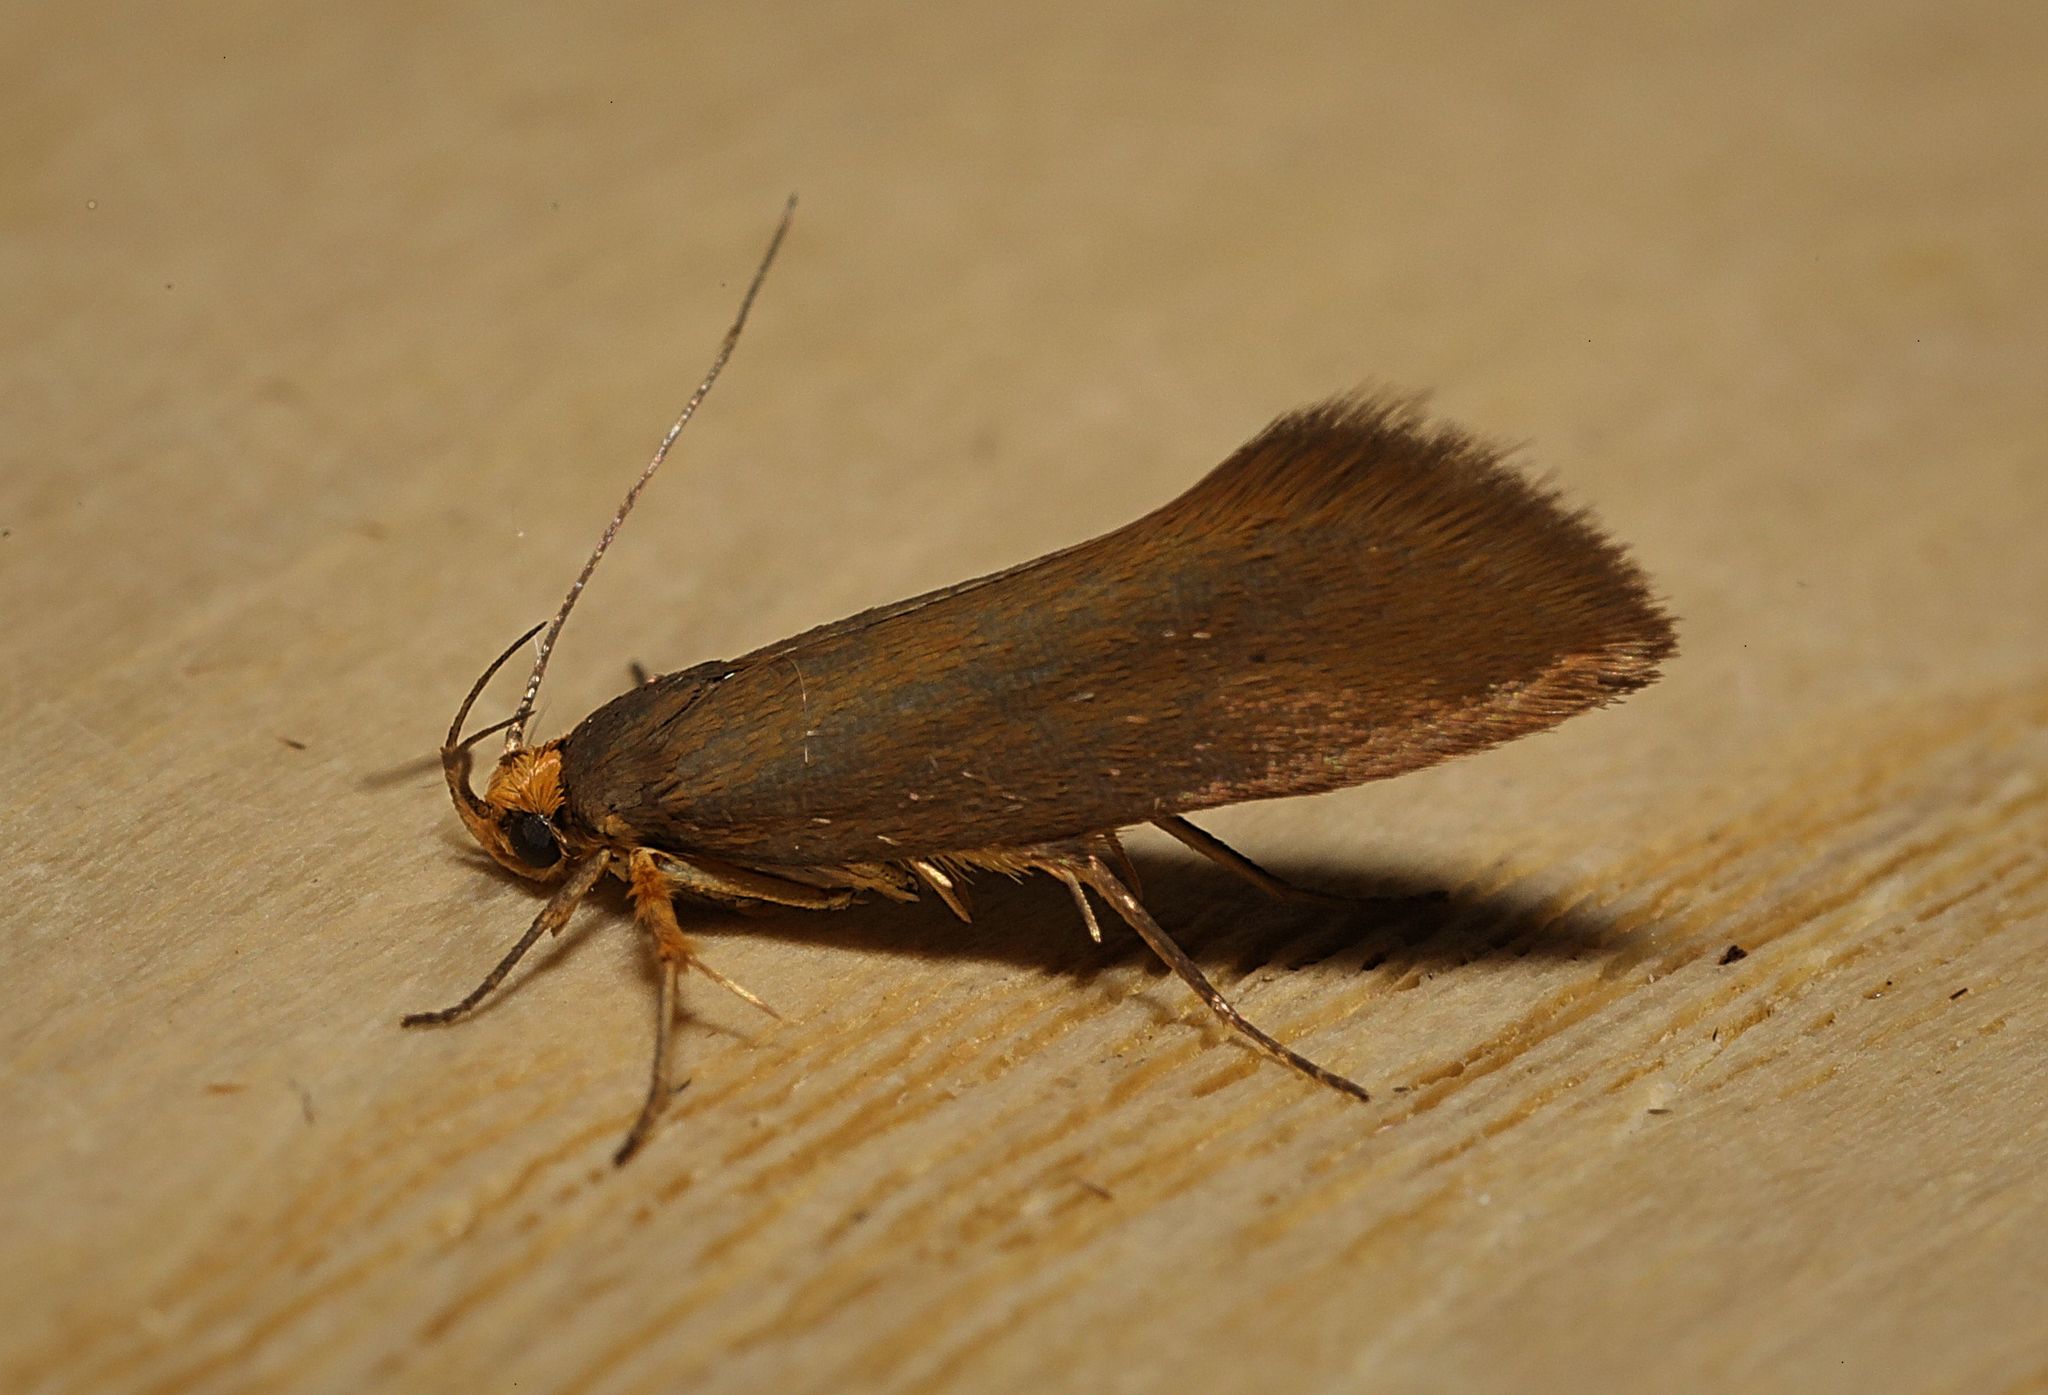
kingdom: Animalia
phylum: Arthropoda
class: Insecta
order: Lepidoptera
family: Oecophoridae
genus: Borkhausenia
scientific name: Borkhausenia Crassa unitella
